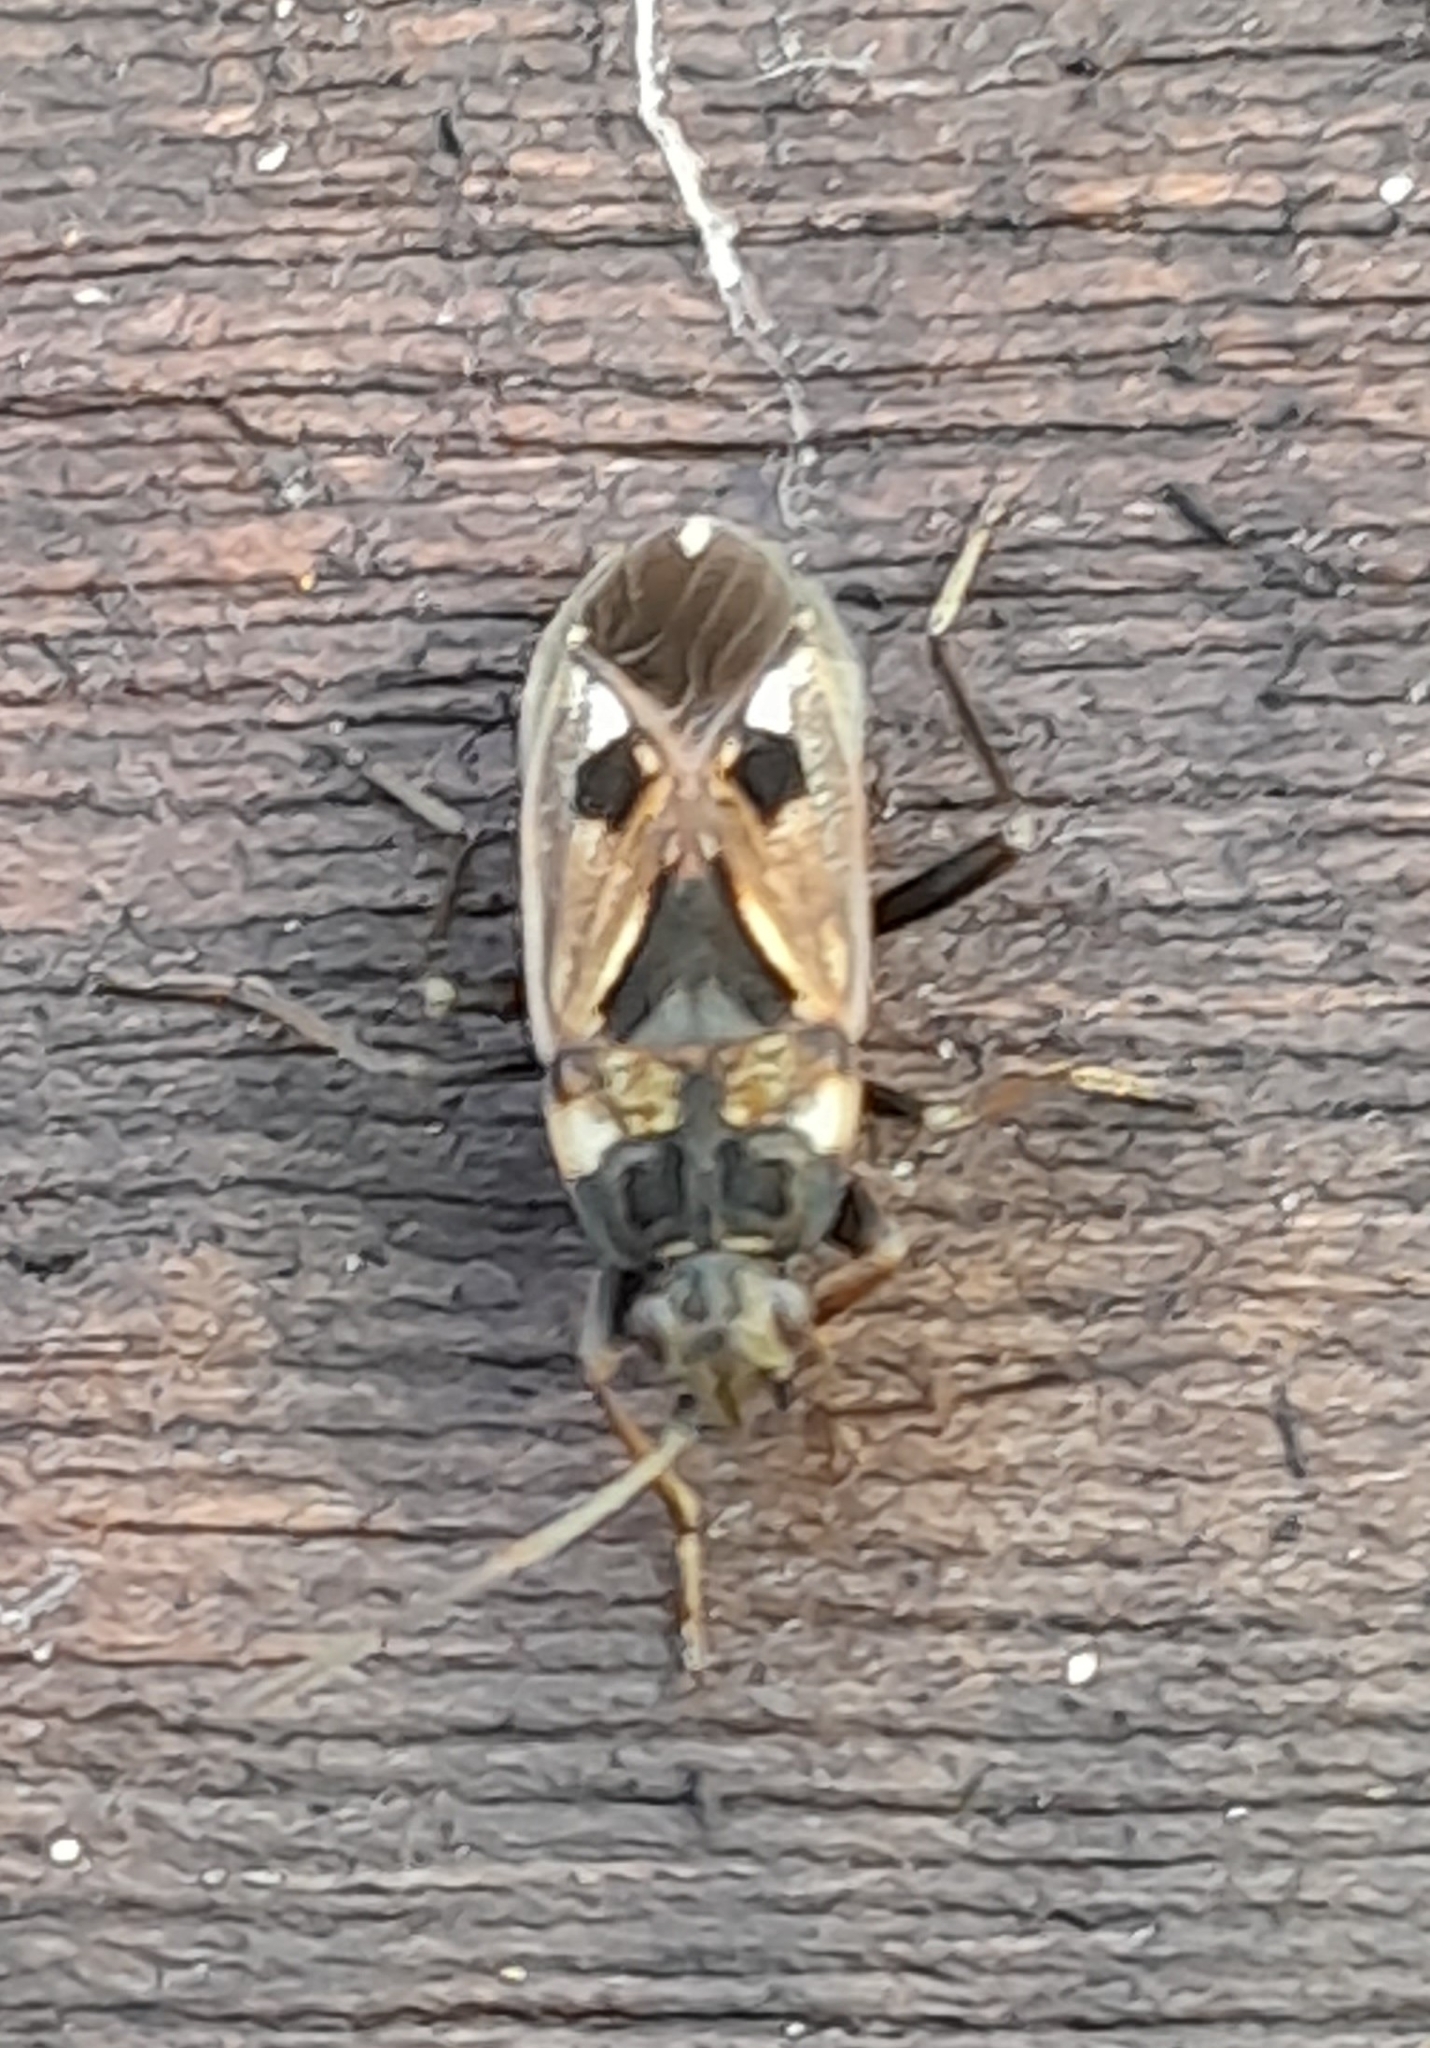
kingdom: Animalia
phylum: Arthropoda
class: Insecta
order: Hemiptera
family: Rhyparochromidae
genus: Rhyparochromus
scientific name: Rhyparochromus vulgaris
